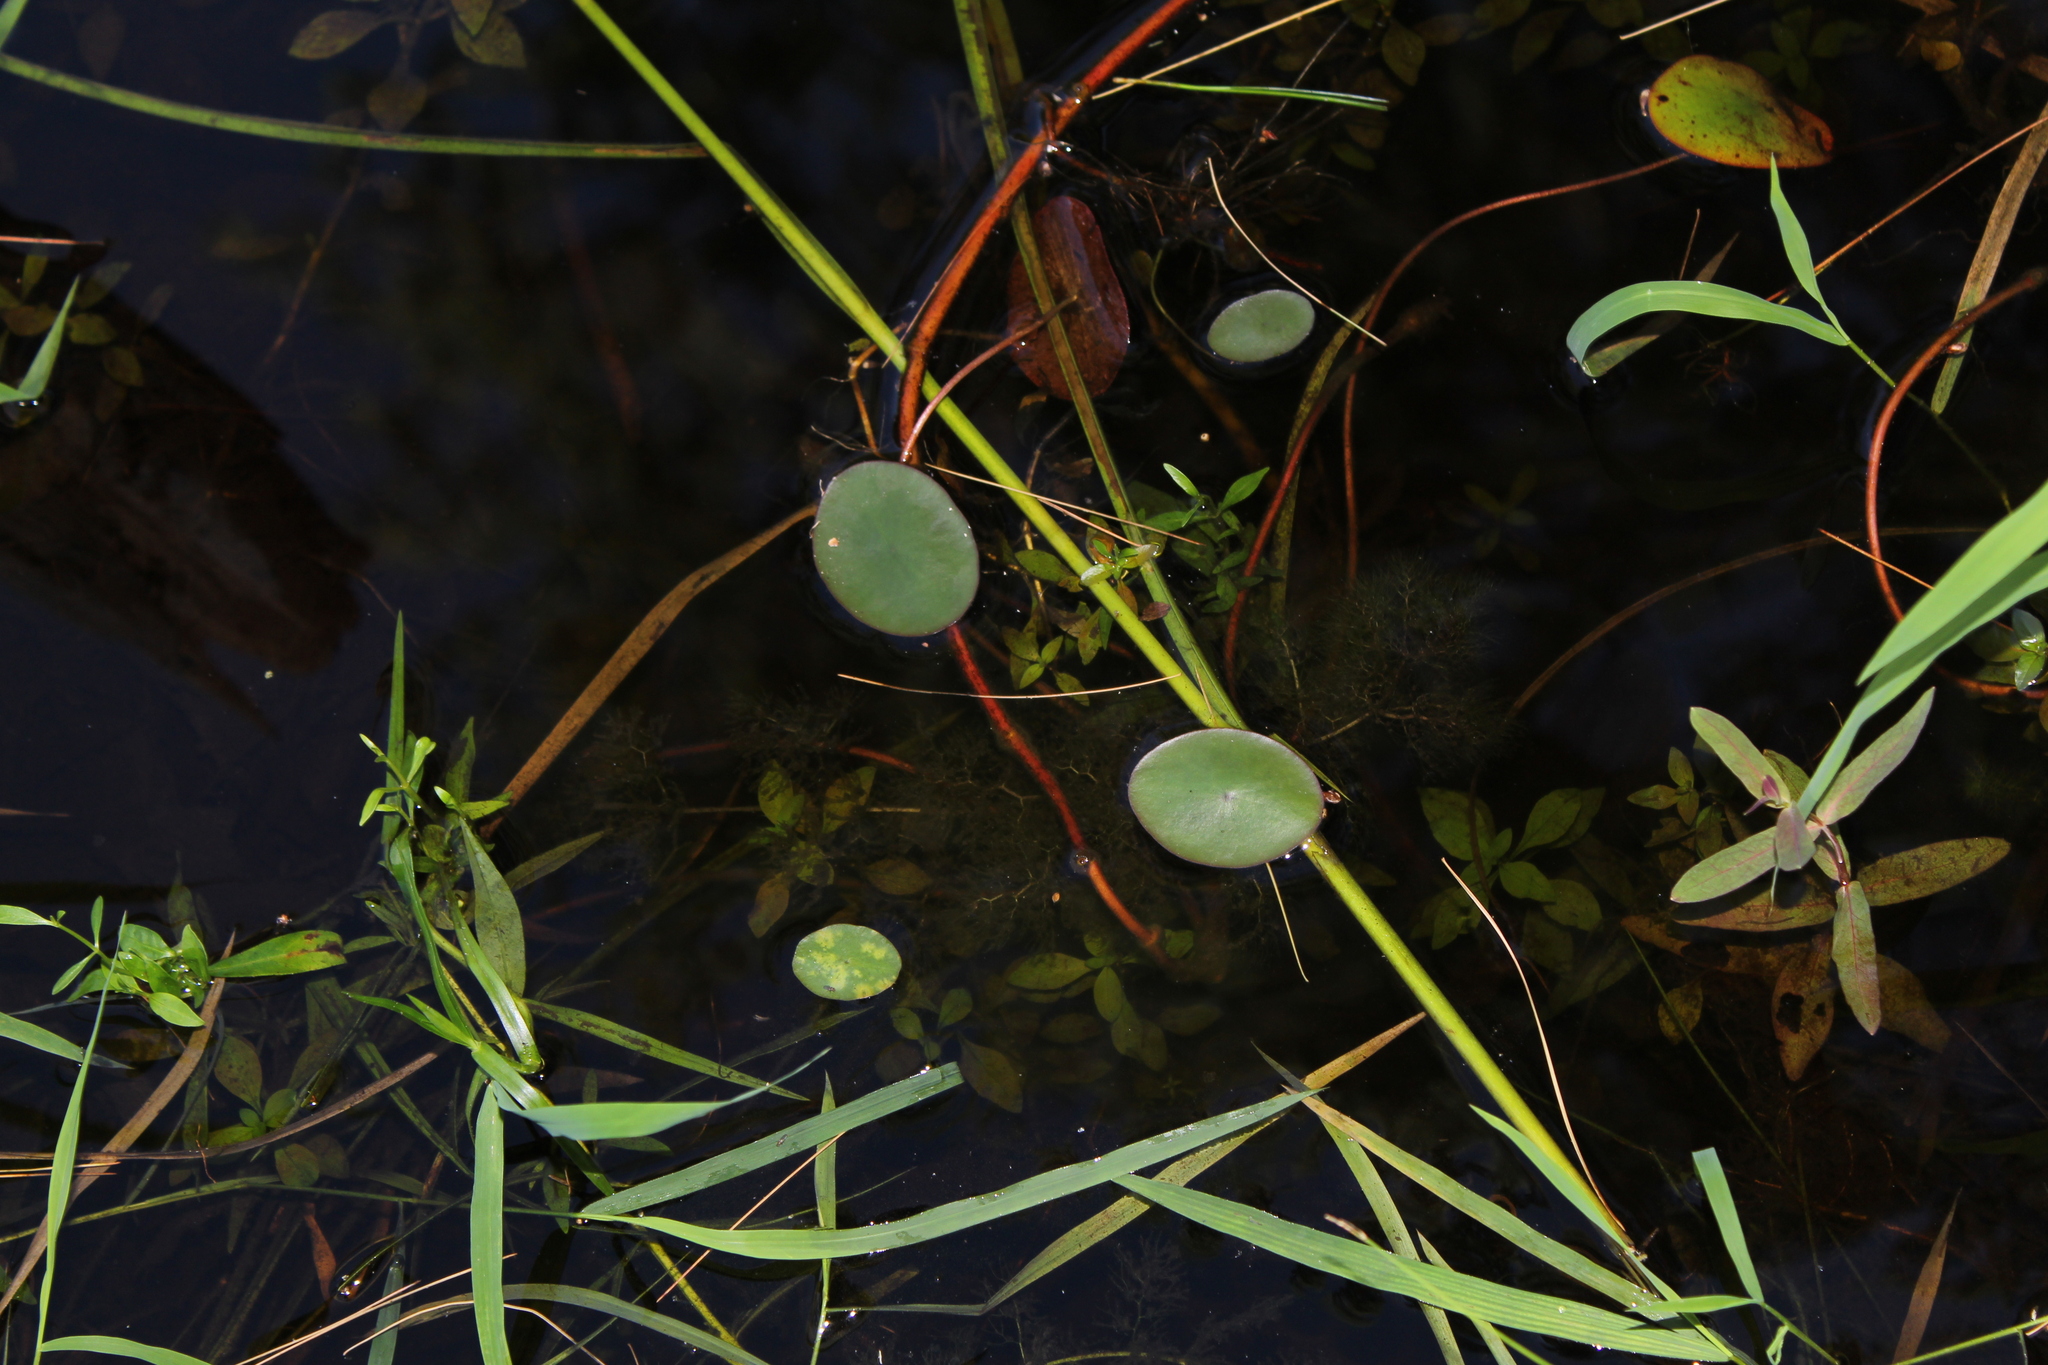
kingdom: Plantae
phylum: Tracheophyta
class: Magnoliopsida
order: Nymphaeales
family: Cabombaceae
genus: Brasenia
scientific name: Brasenia schreberi
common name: Water-shield
